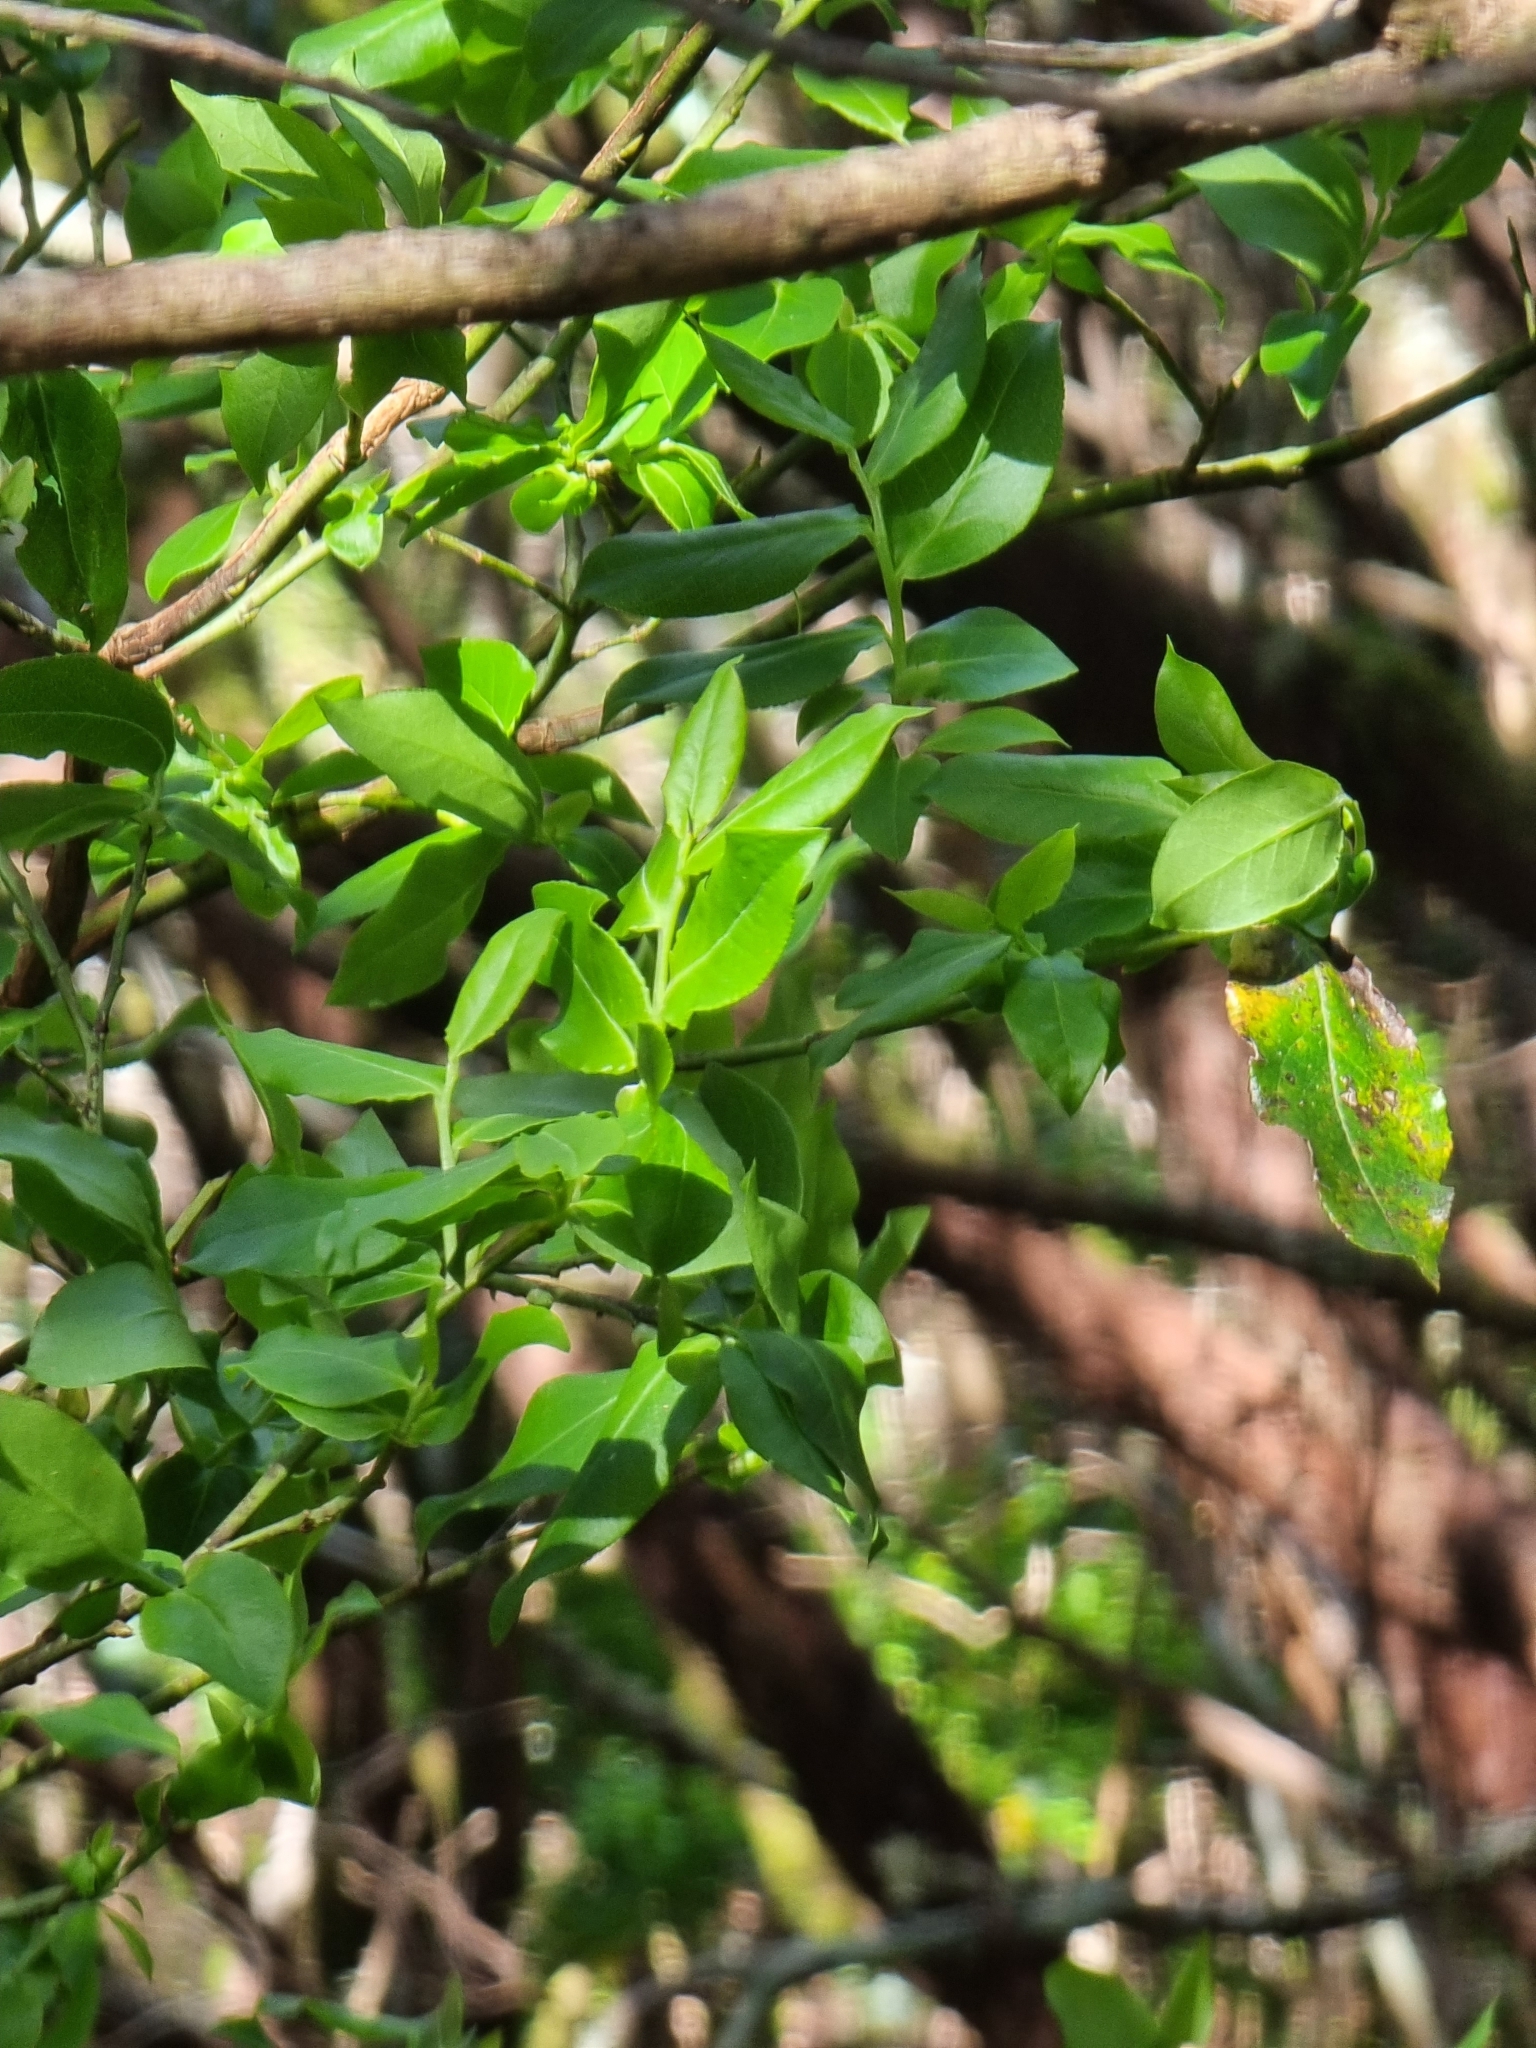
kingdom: Plantae
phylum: Tracheophyta
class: Magnoliopsida
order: Ericales
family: Ericaceae
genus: Vaccinium
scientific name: Vaccinium padifolium
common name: Madeiran blueberry
